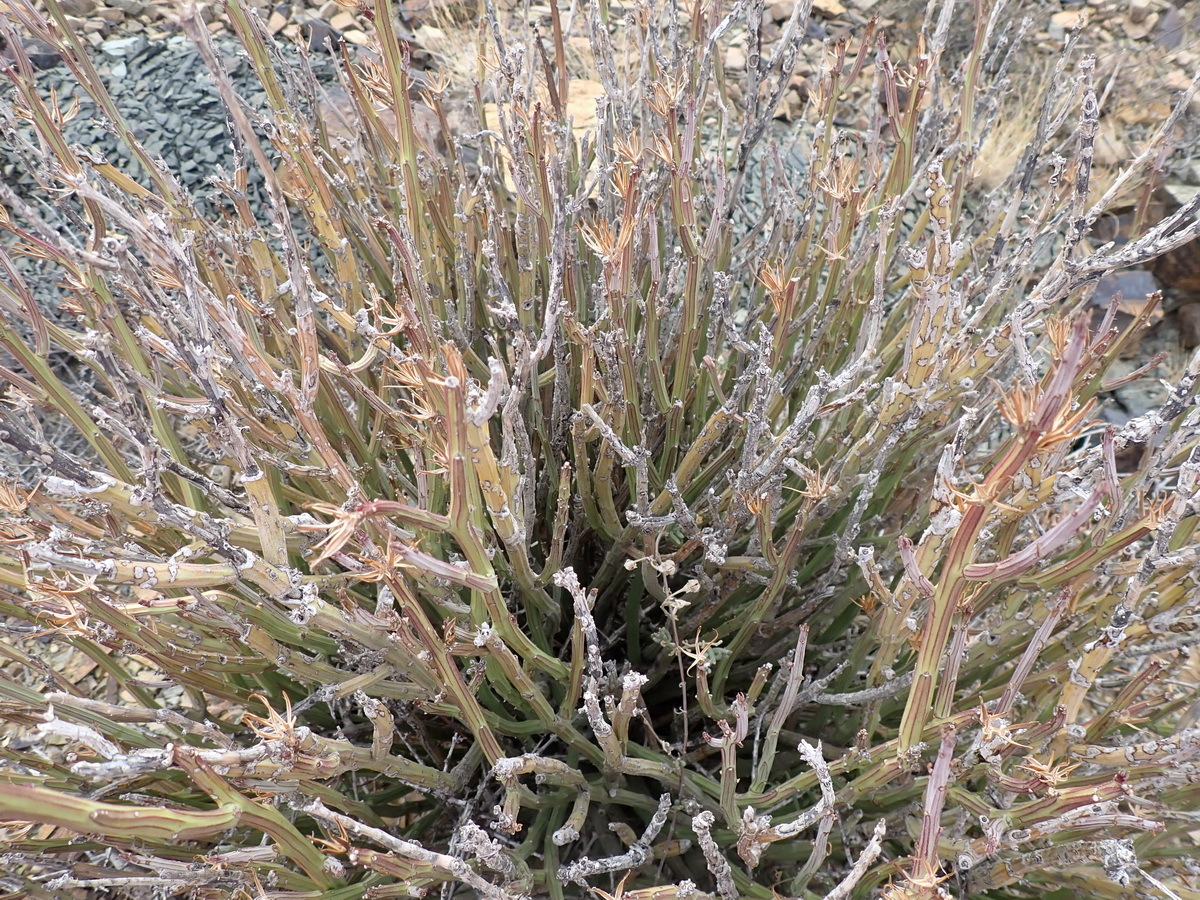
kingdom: Plantae
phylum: Tracheophyta
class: Magnoliopsida
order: Asterales
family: Asteraceae
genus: Curio
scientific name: Curio avasimontanus
